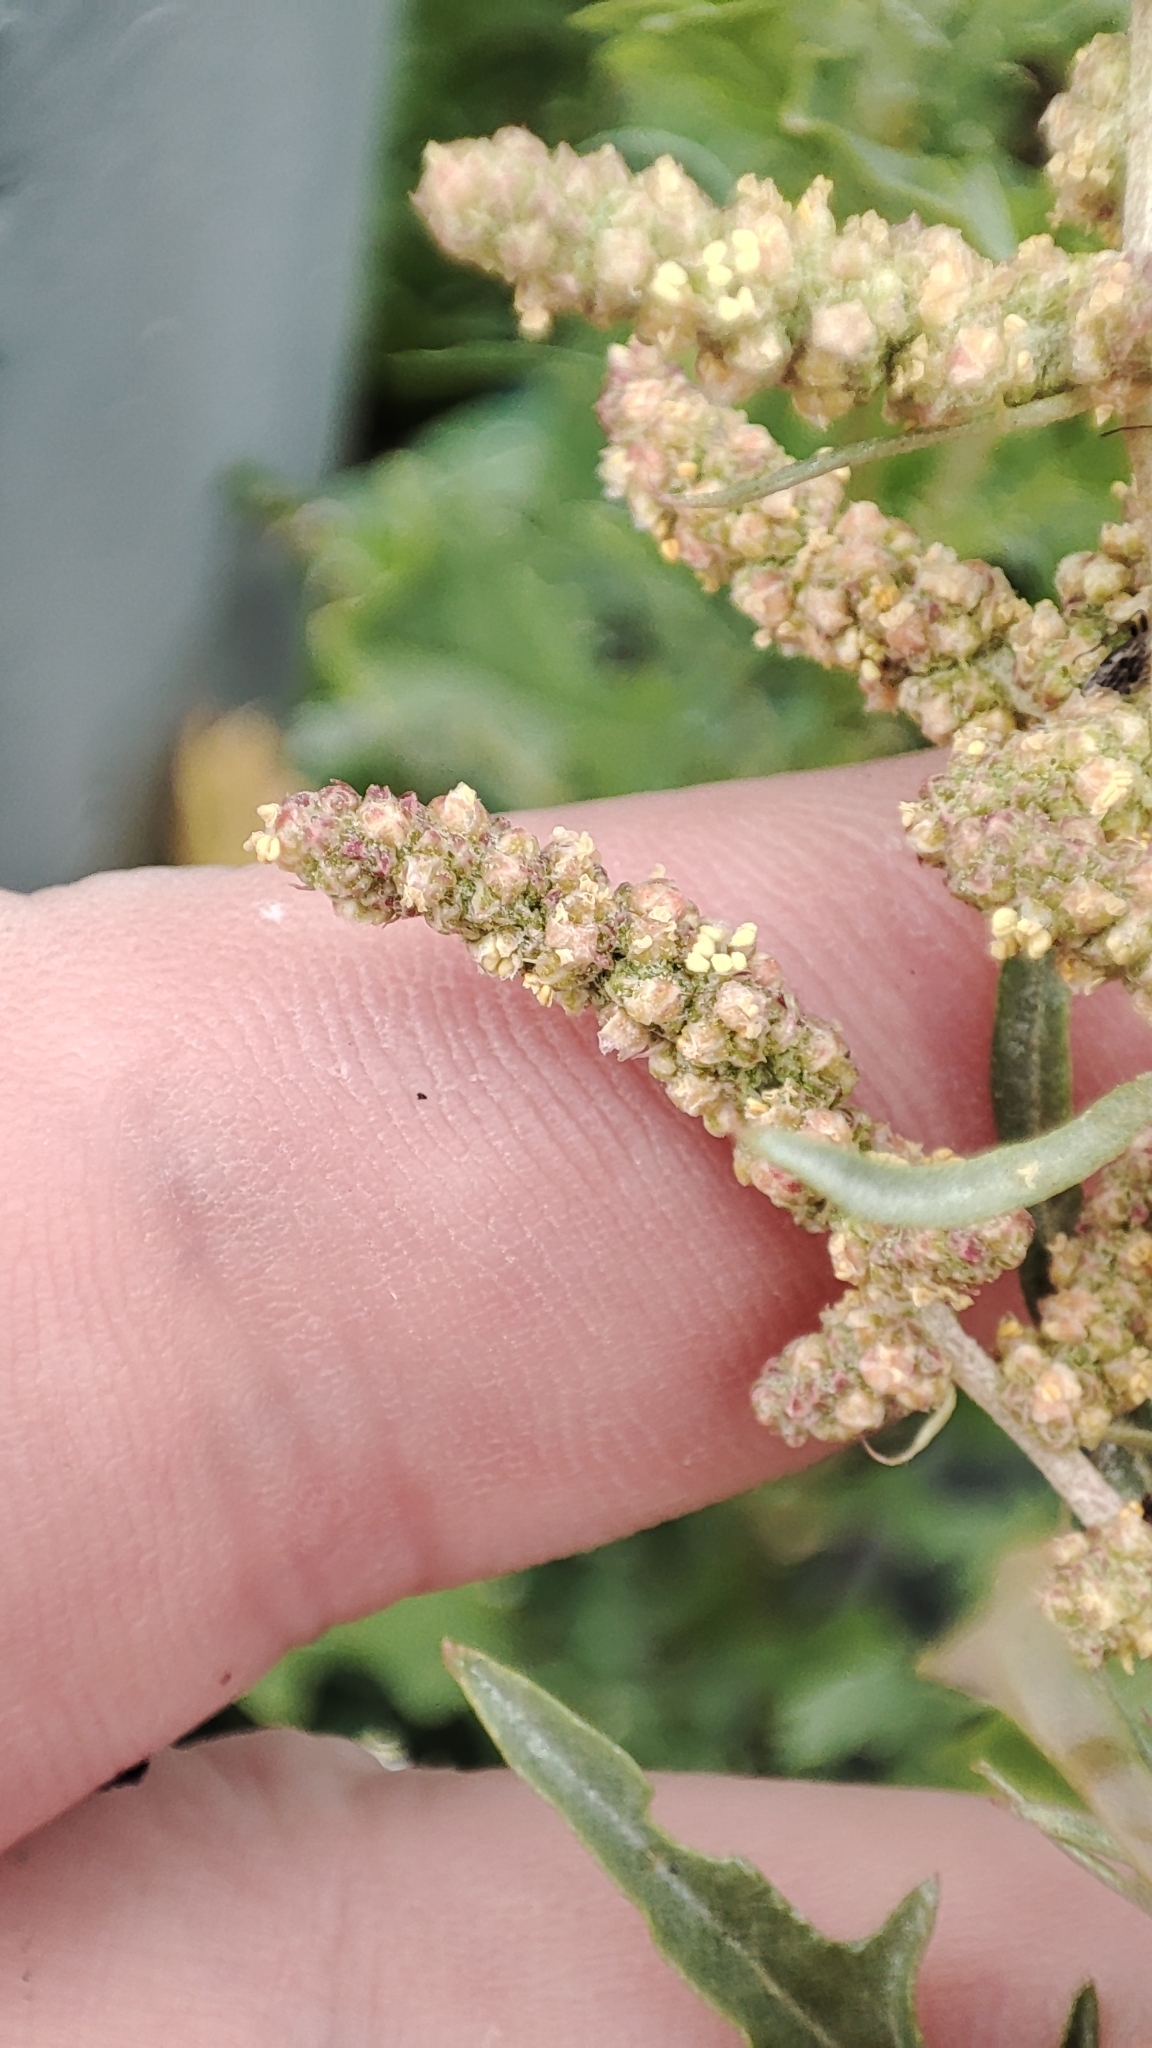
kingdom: Plantae
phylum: Tracheophyta
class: Magnoliopsida
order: Caryophyllales
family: Amaranthaceae
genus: Atriplex
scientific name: Atriplex tatarica
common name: Tatarian orache
